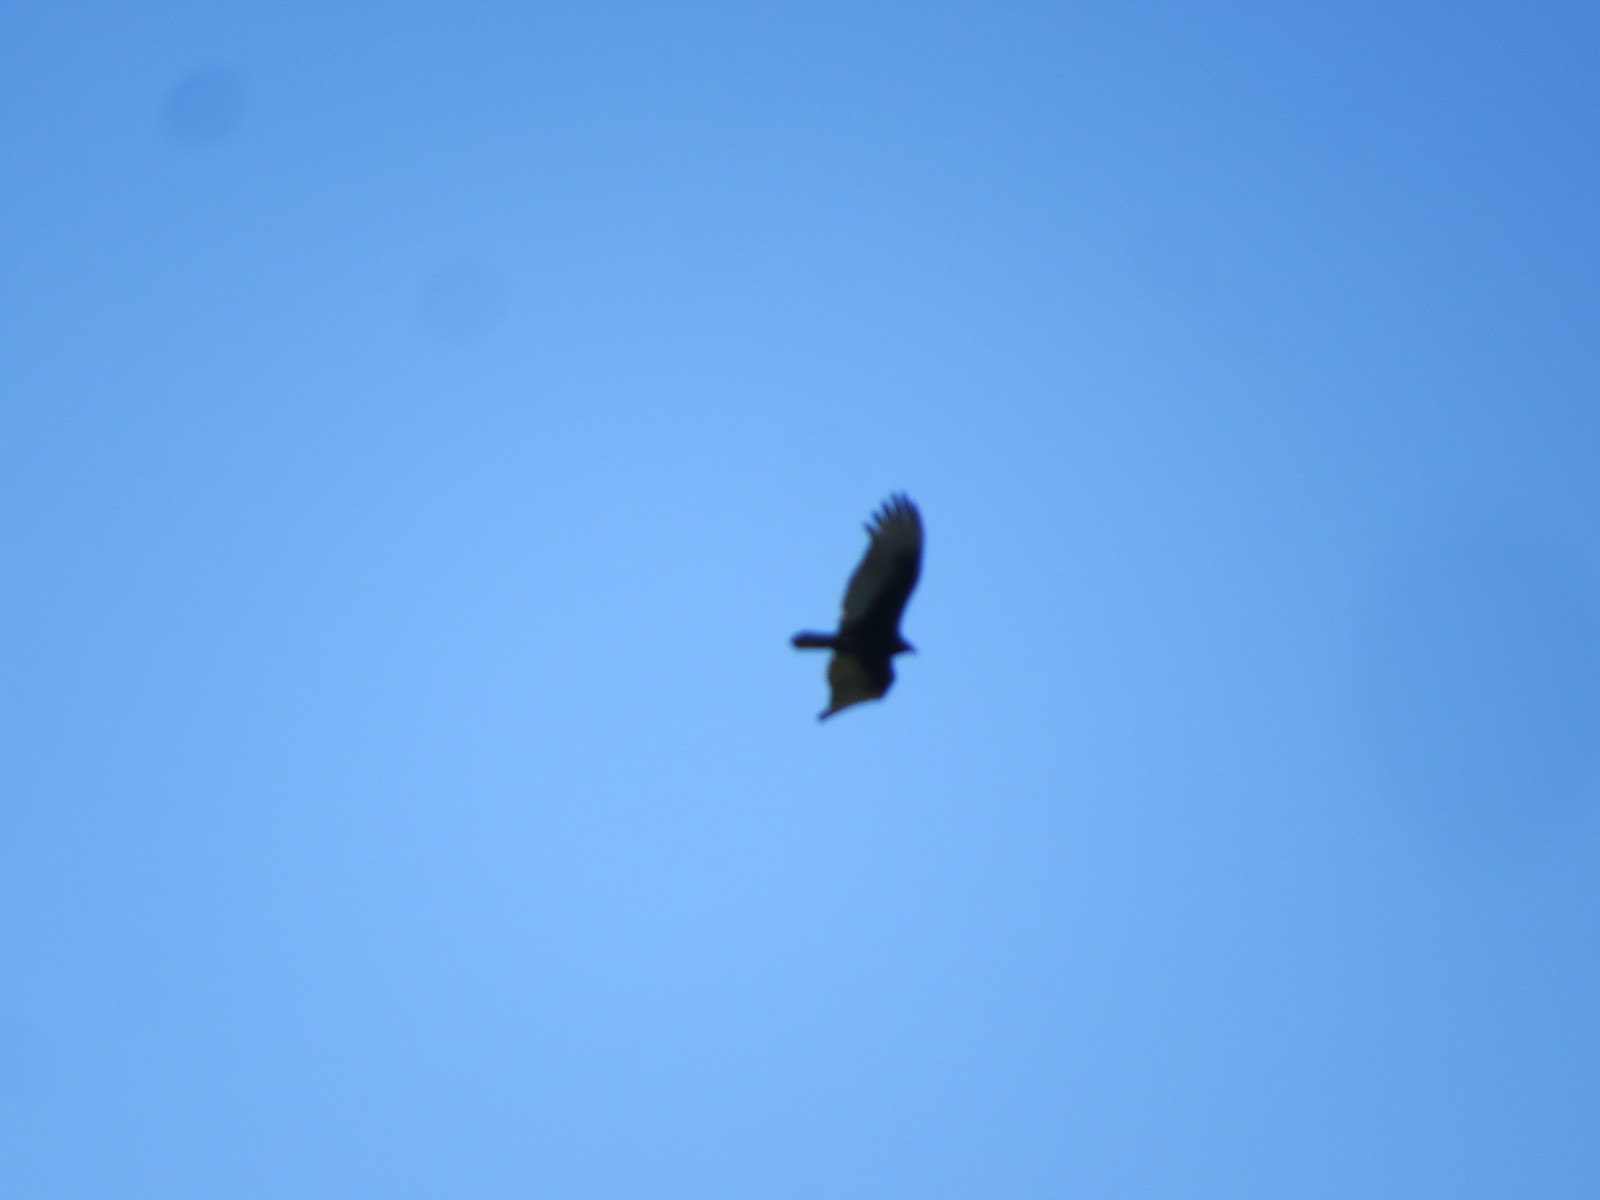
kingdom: Animalia
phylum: Chordata
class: Aves
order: Accipitriformes
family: Cathartidae
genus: Cathartes
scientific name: Cathartes aura
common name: Turkey vulture
